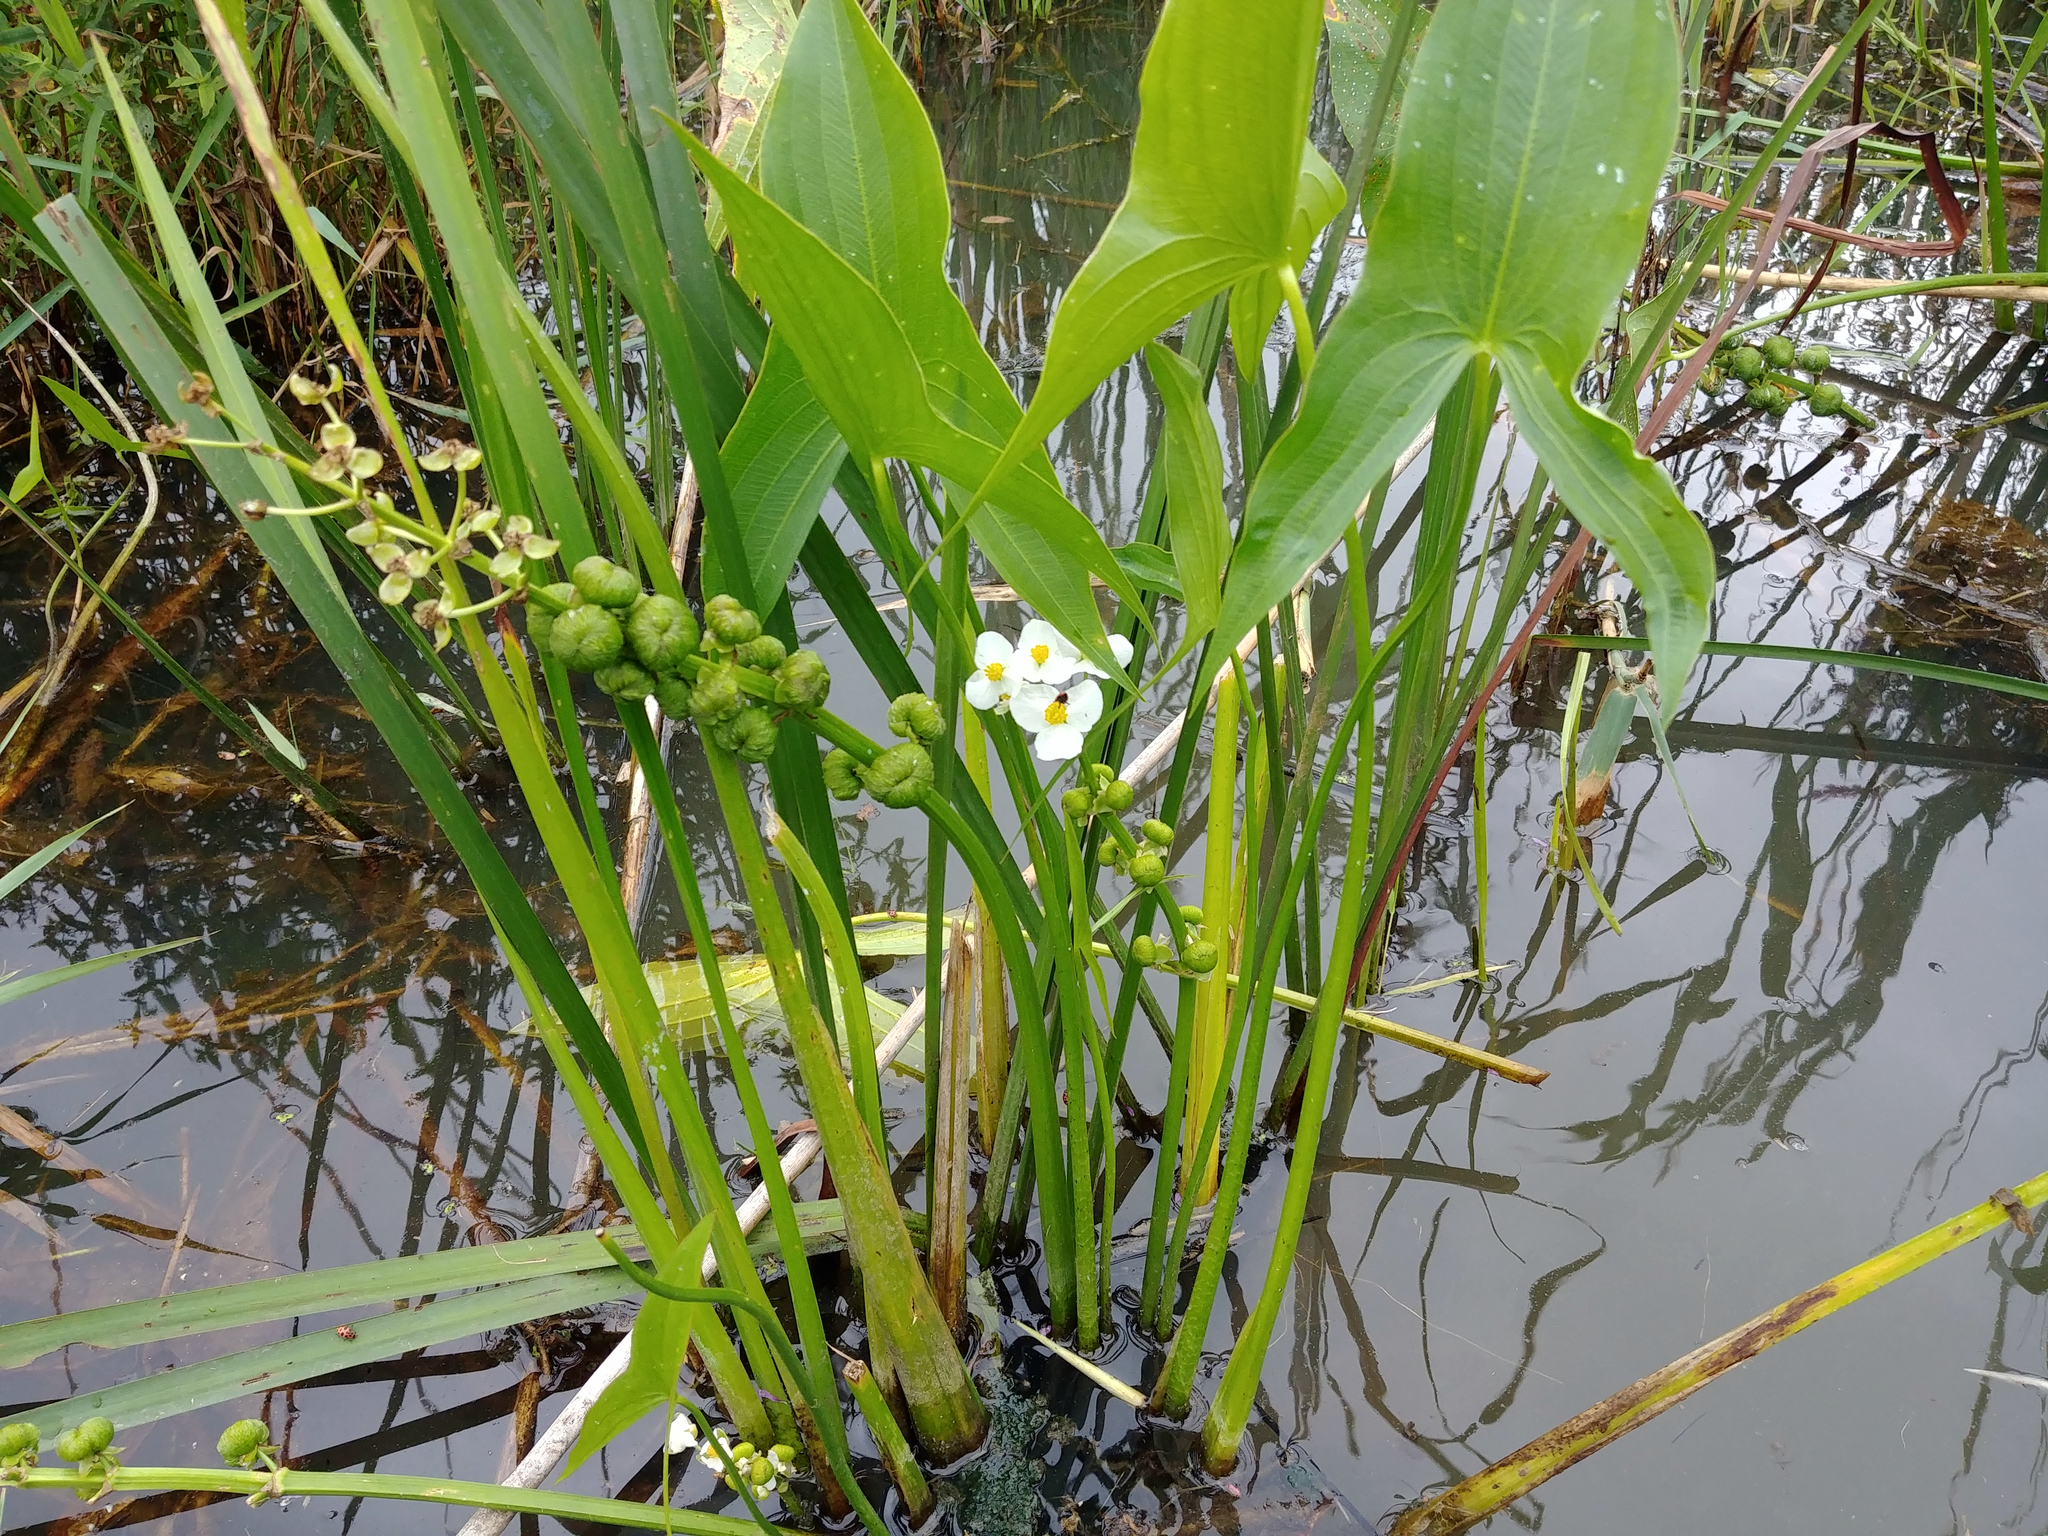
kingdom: Plantae
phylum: Tracheophyta
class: Liliopsida
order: Alismatales
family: Alismataceae
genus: Sagittaria
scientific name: Sagittaria latifolia
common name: Duck-potato
